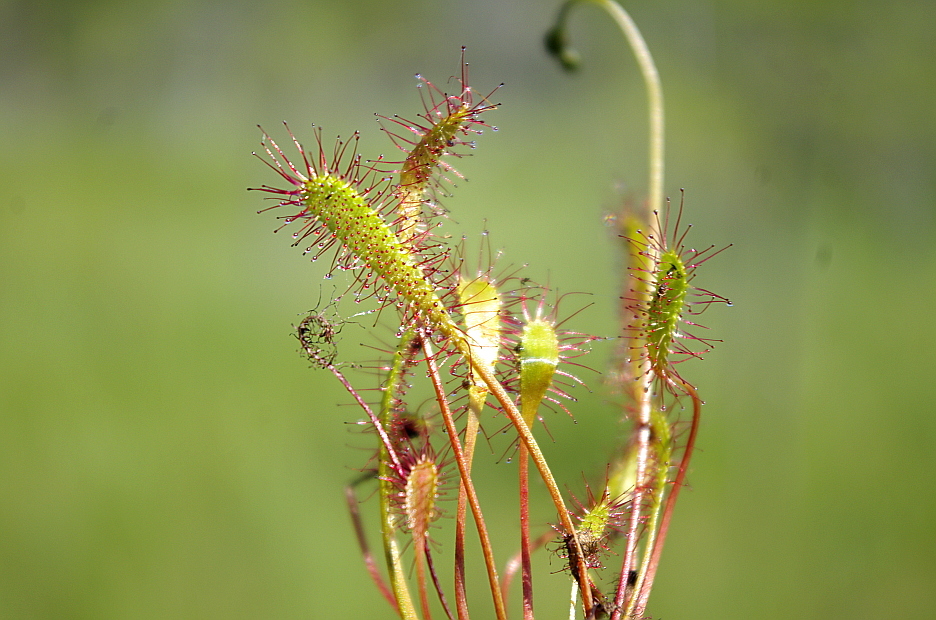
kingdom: Plantae
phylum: Tracheophyta
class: Magnoliopsida
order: Caryophyllales
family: Droseraceae
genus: Drosera
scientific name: Drosera anglica
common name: Great sundew
